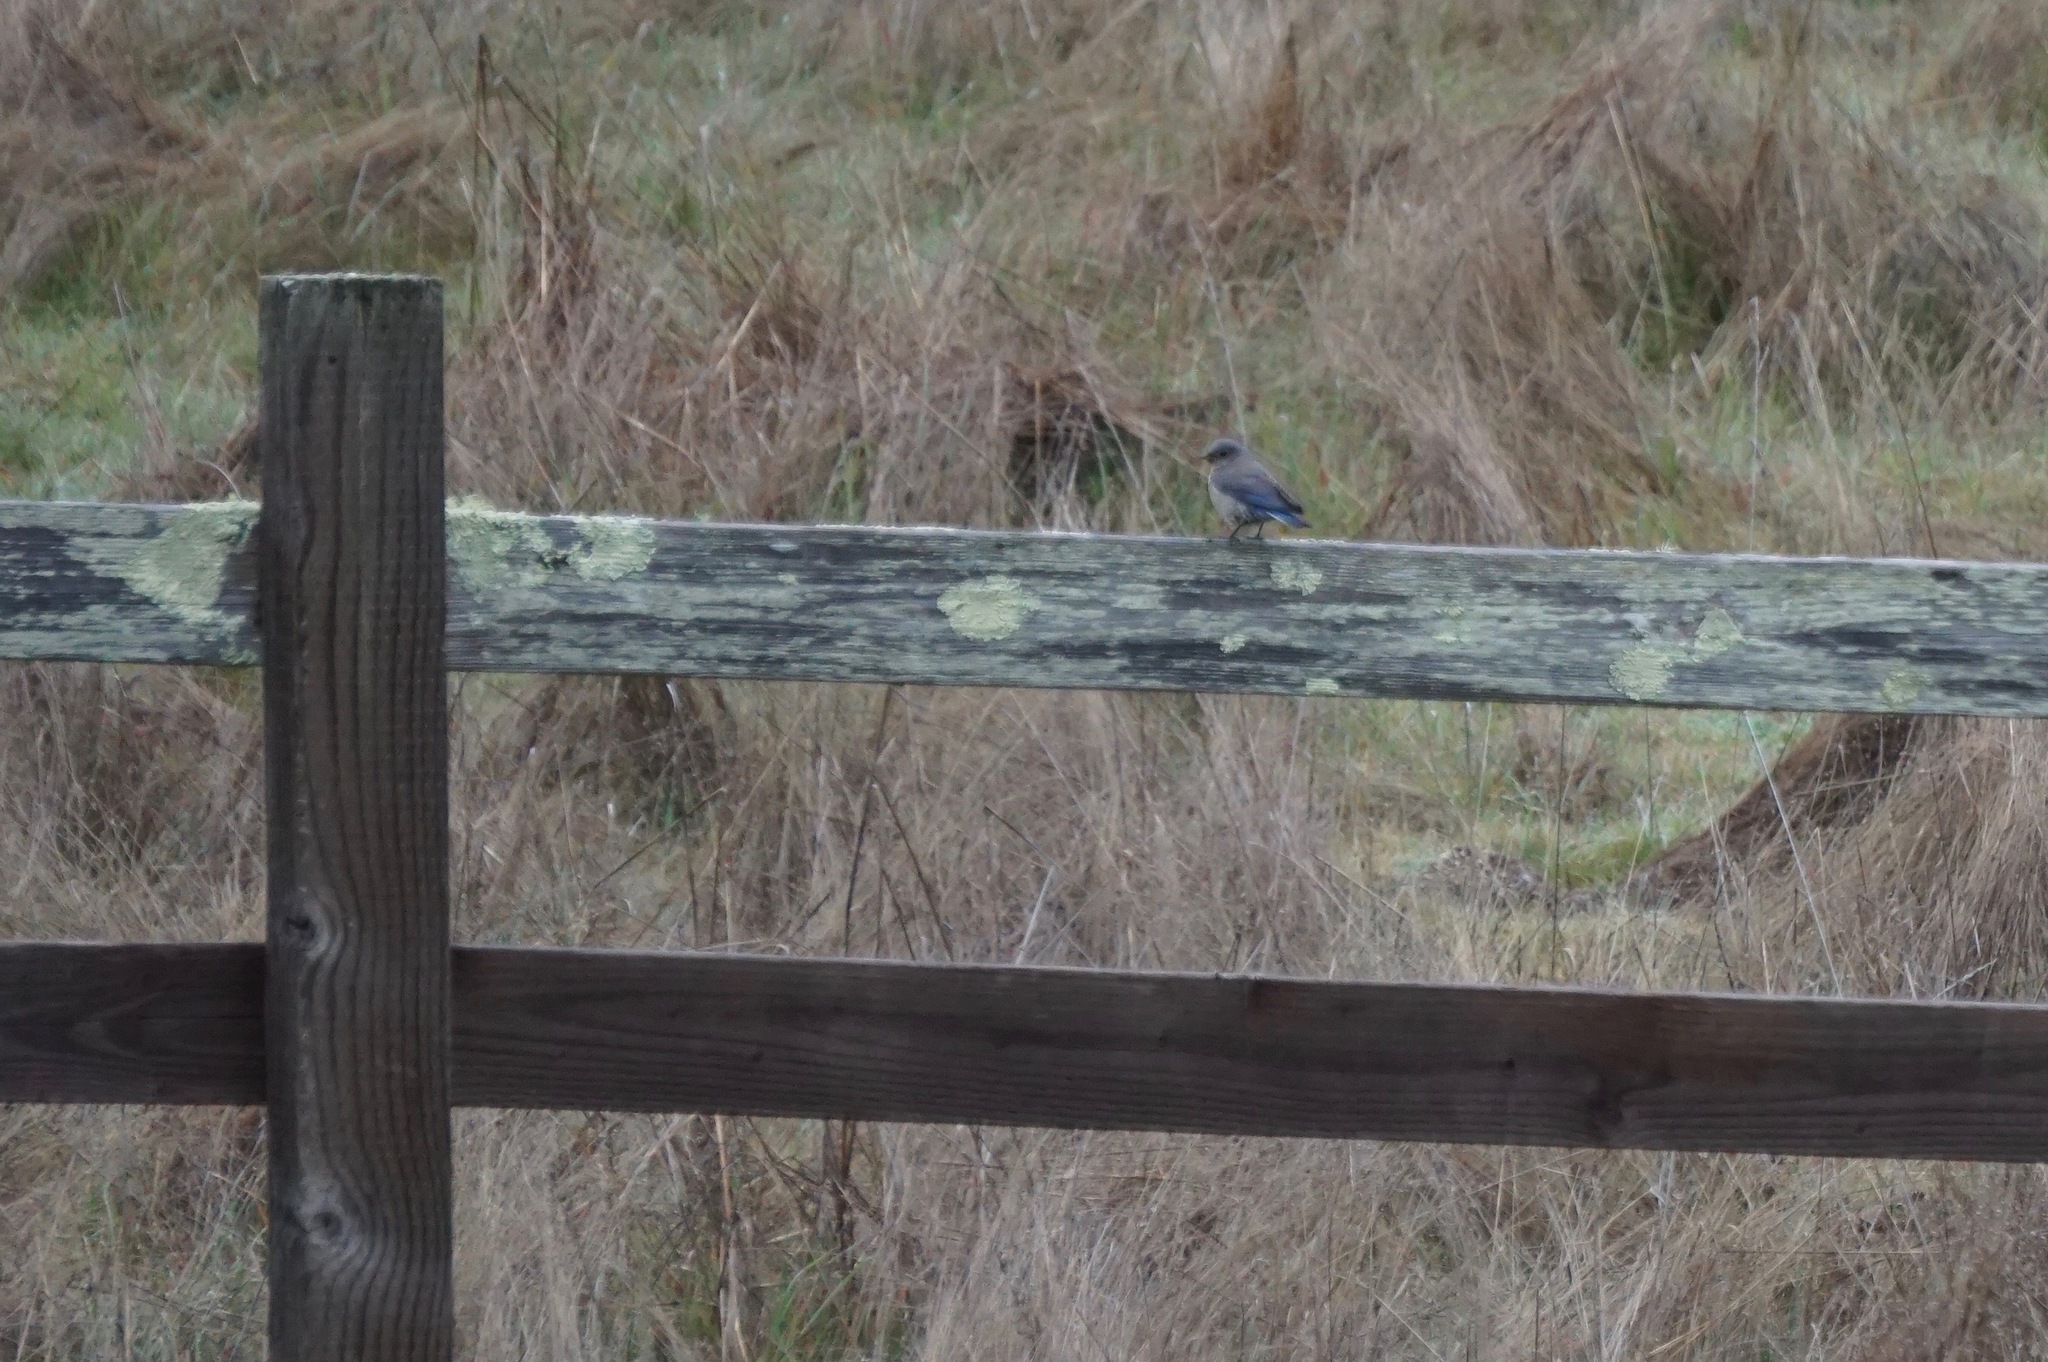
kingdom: Animalia
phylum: Chordata
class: Aves
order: Passeriformes
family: Turdidae
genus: Sialia
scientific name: Sialia mexicana
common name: Western bluebird
